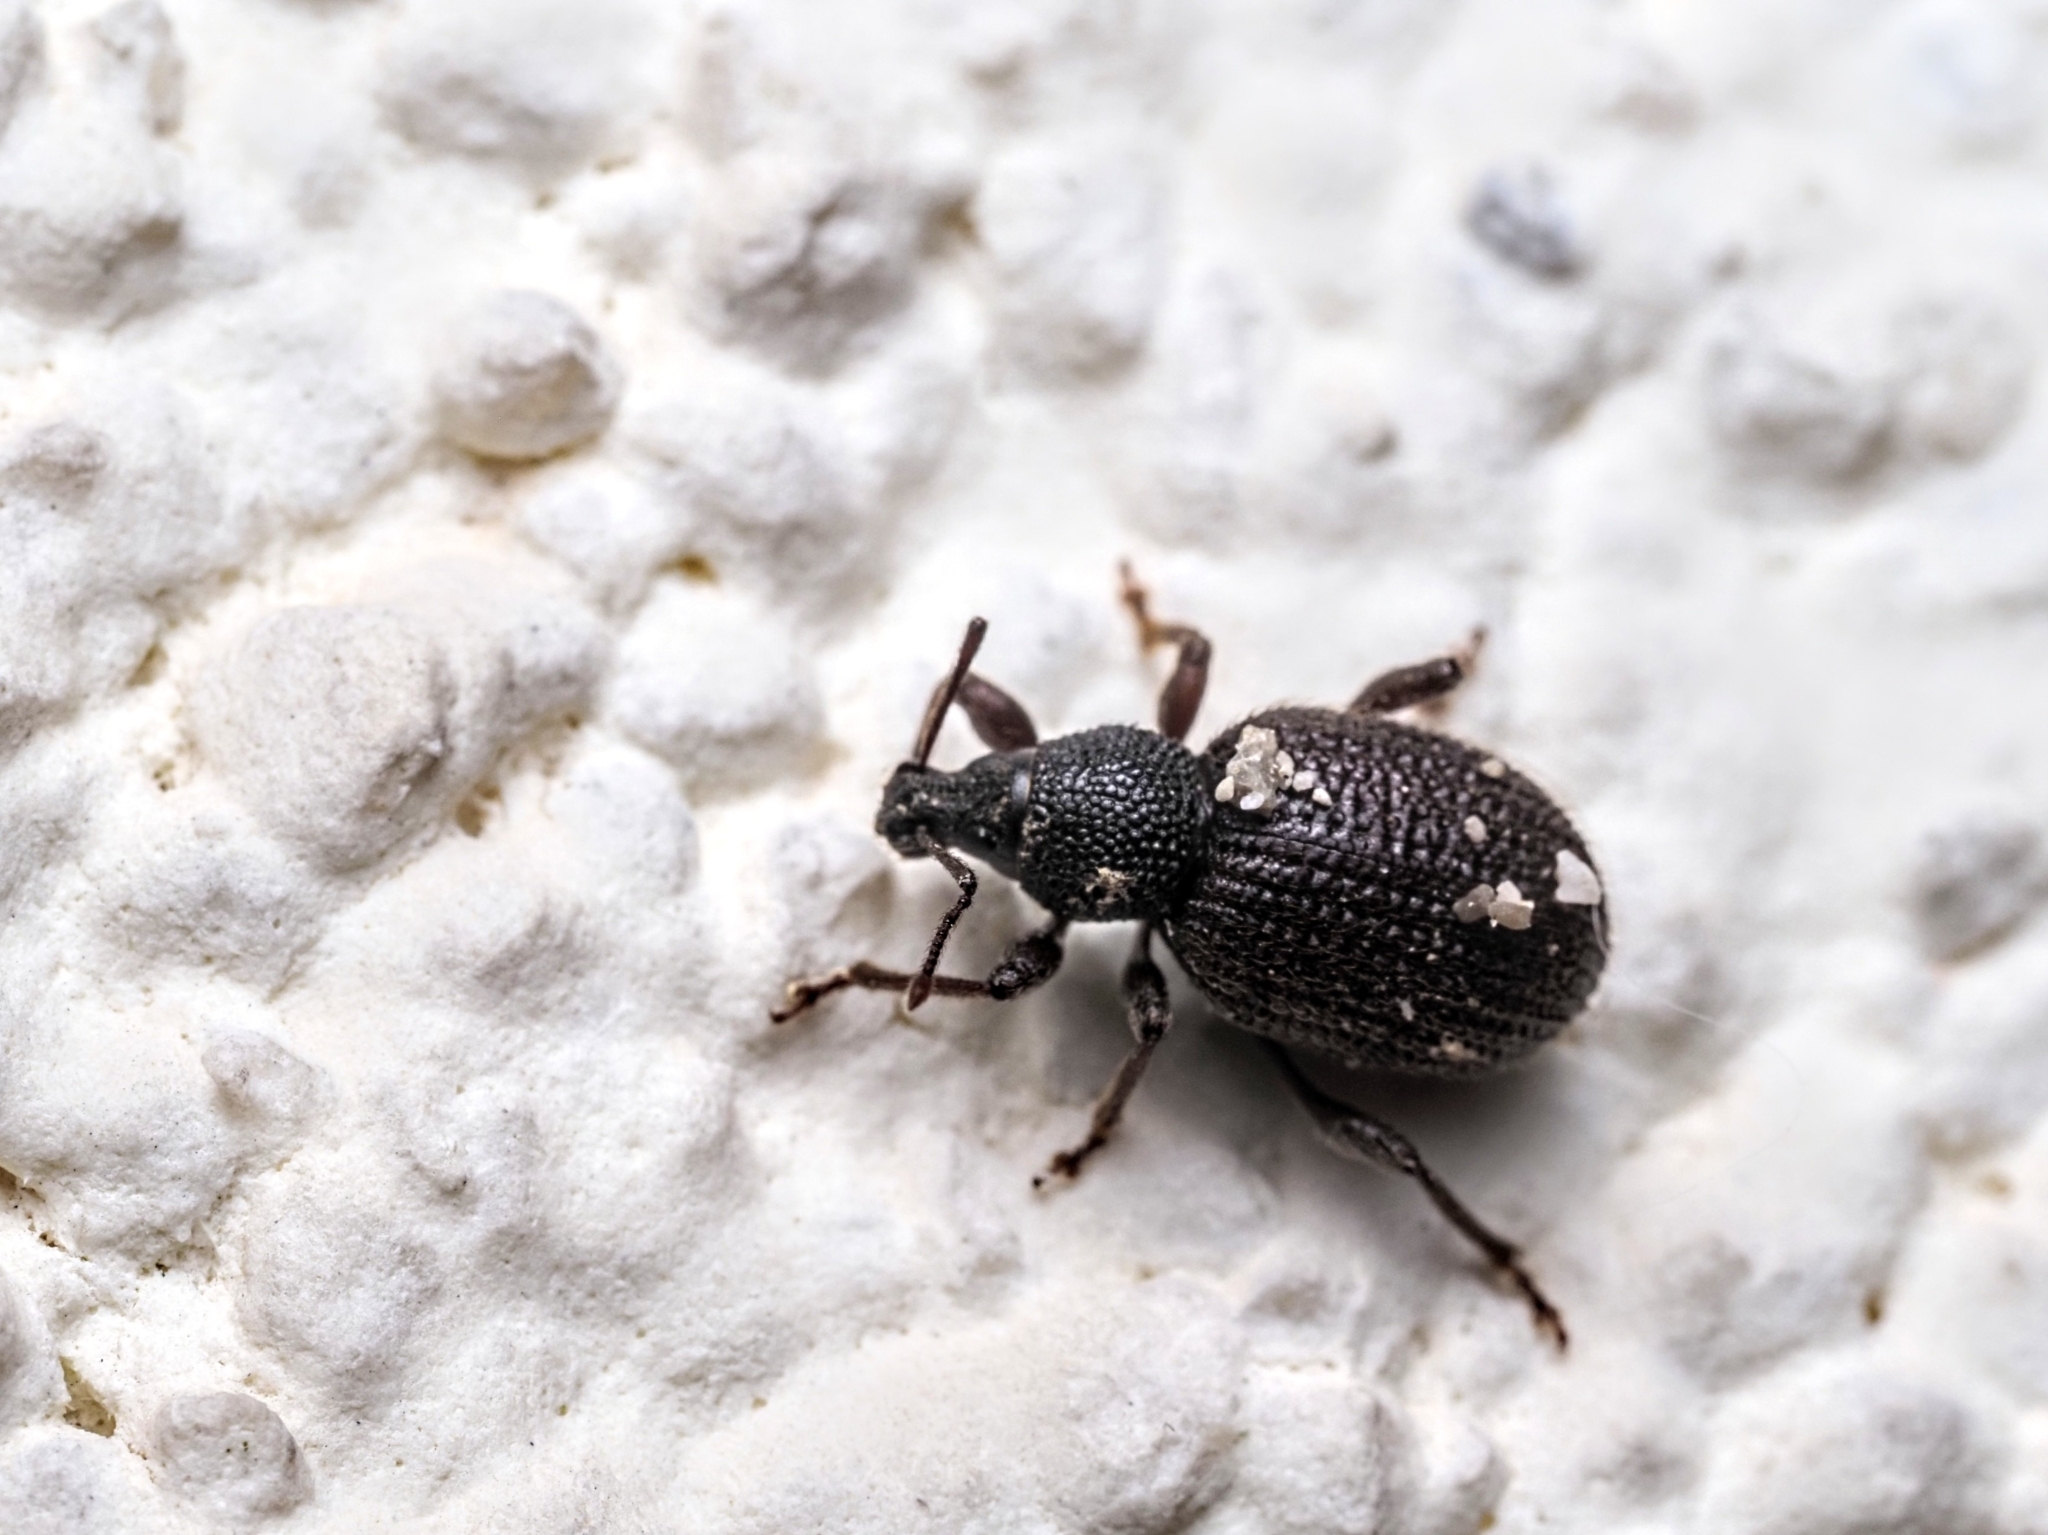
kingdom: Animalia
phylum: Arthropoda
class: Insecta
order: Coleoptera
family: Curculionidae
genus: Otiorhynchus
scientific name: Otiorhynchus rugosostriatus
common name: Weevil
